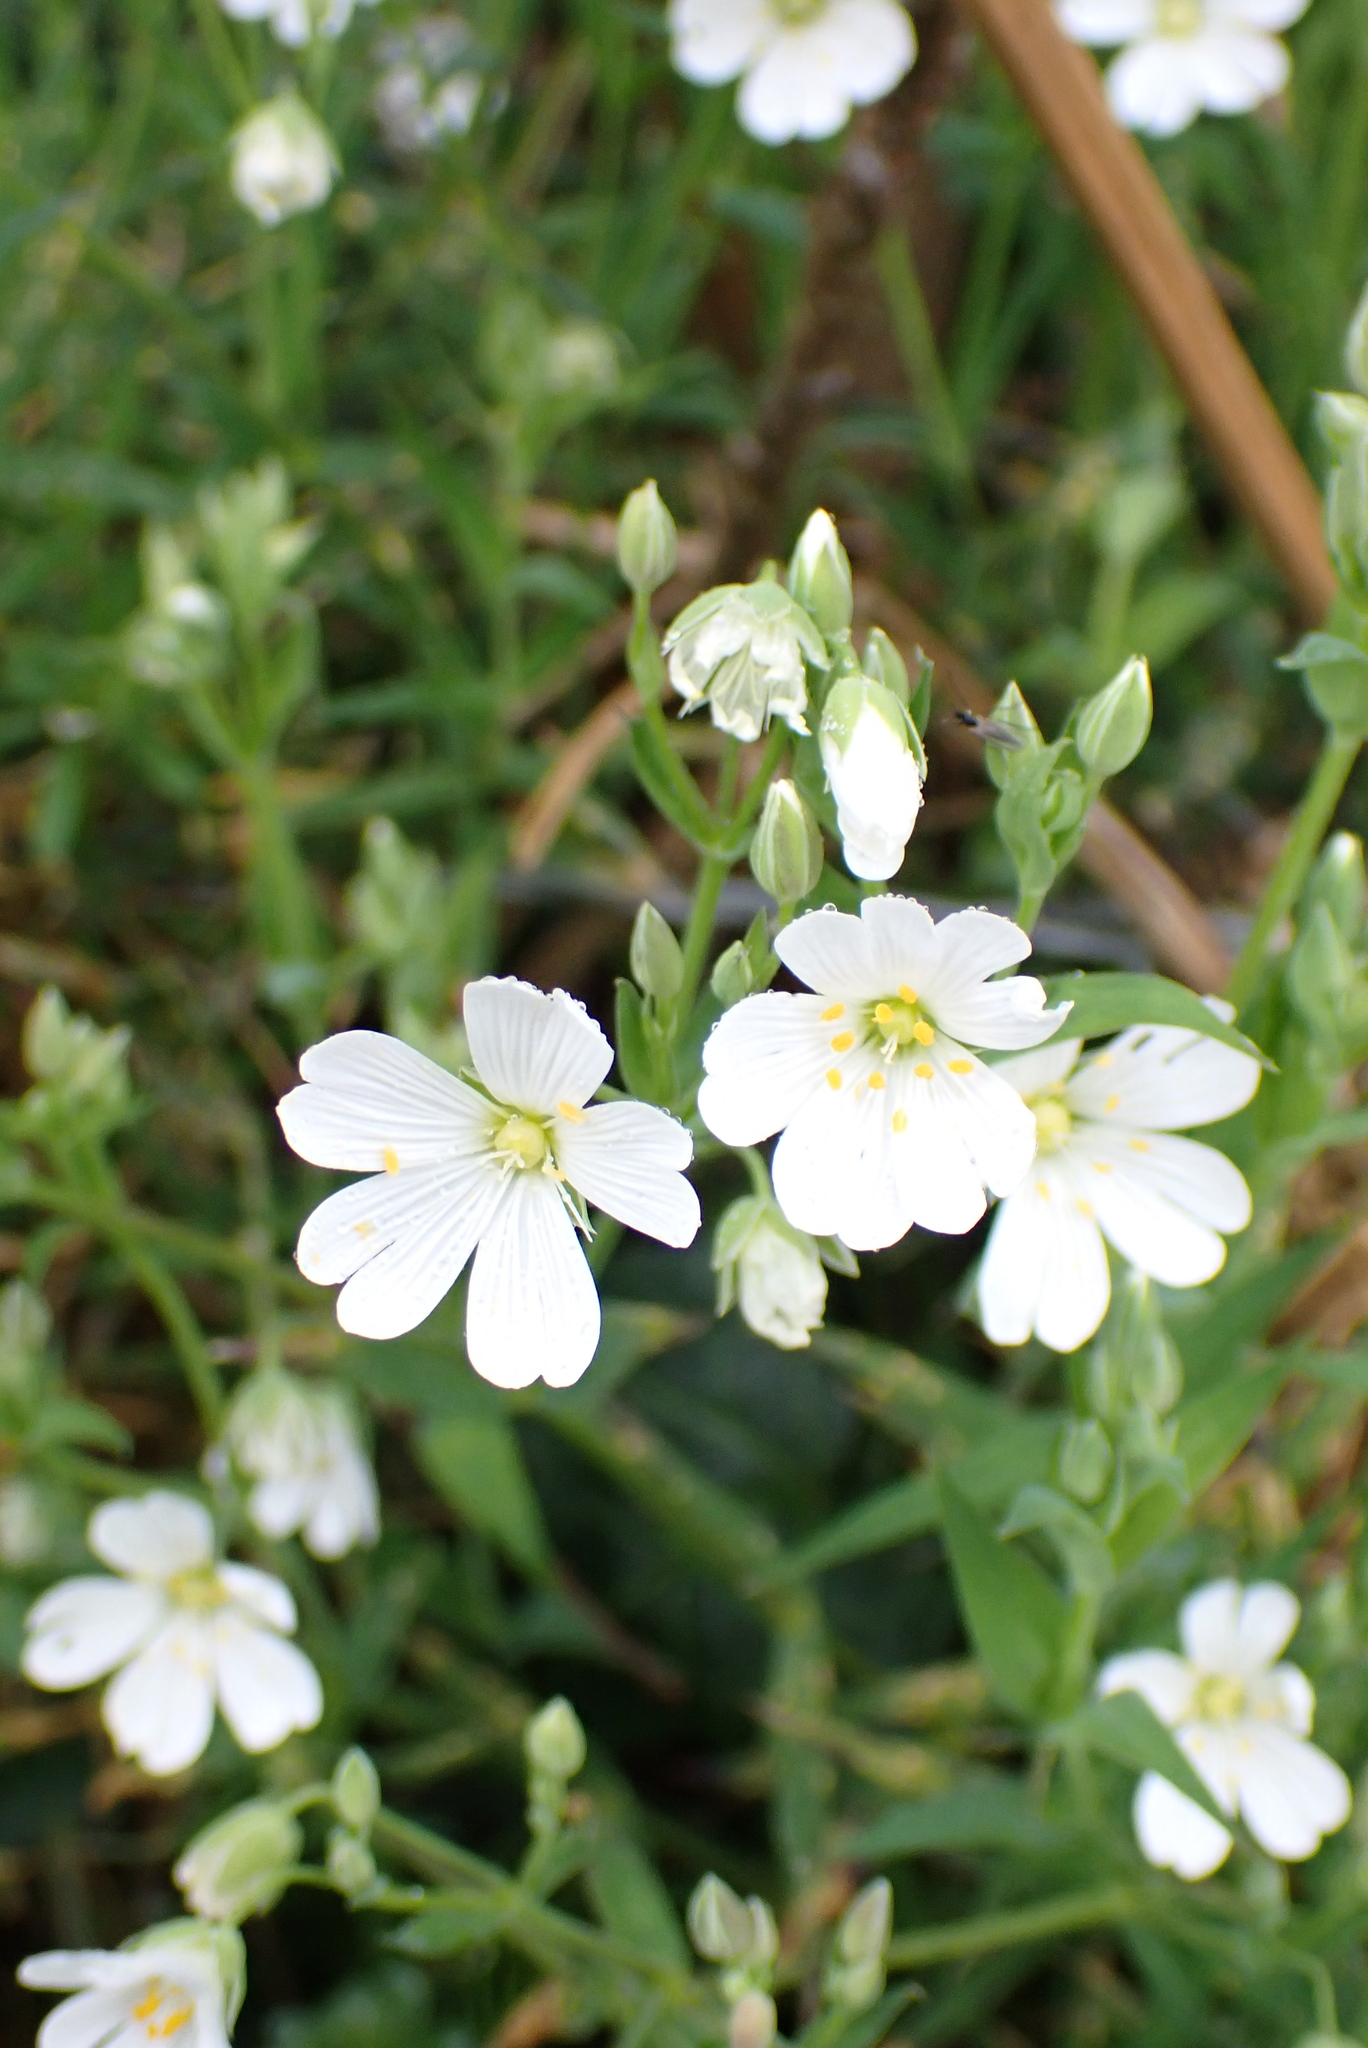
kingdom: Plantae
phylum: Tracheophyta
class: Magnoliopsida
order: Caryophyllales
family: Caryophyllaceae
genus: Rabelera
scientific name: Rabelera holostea
